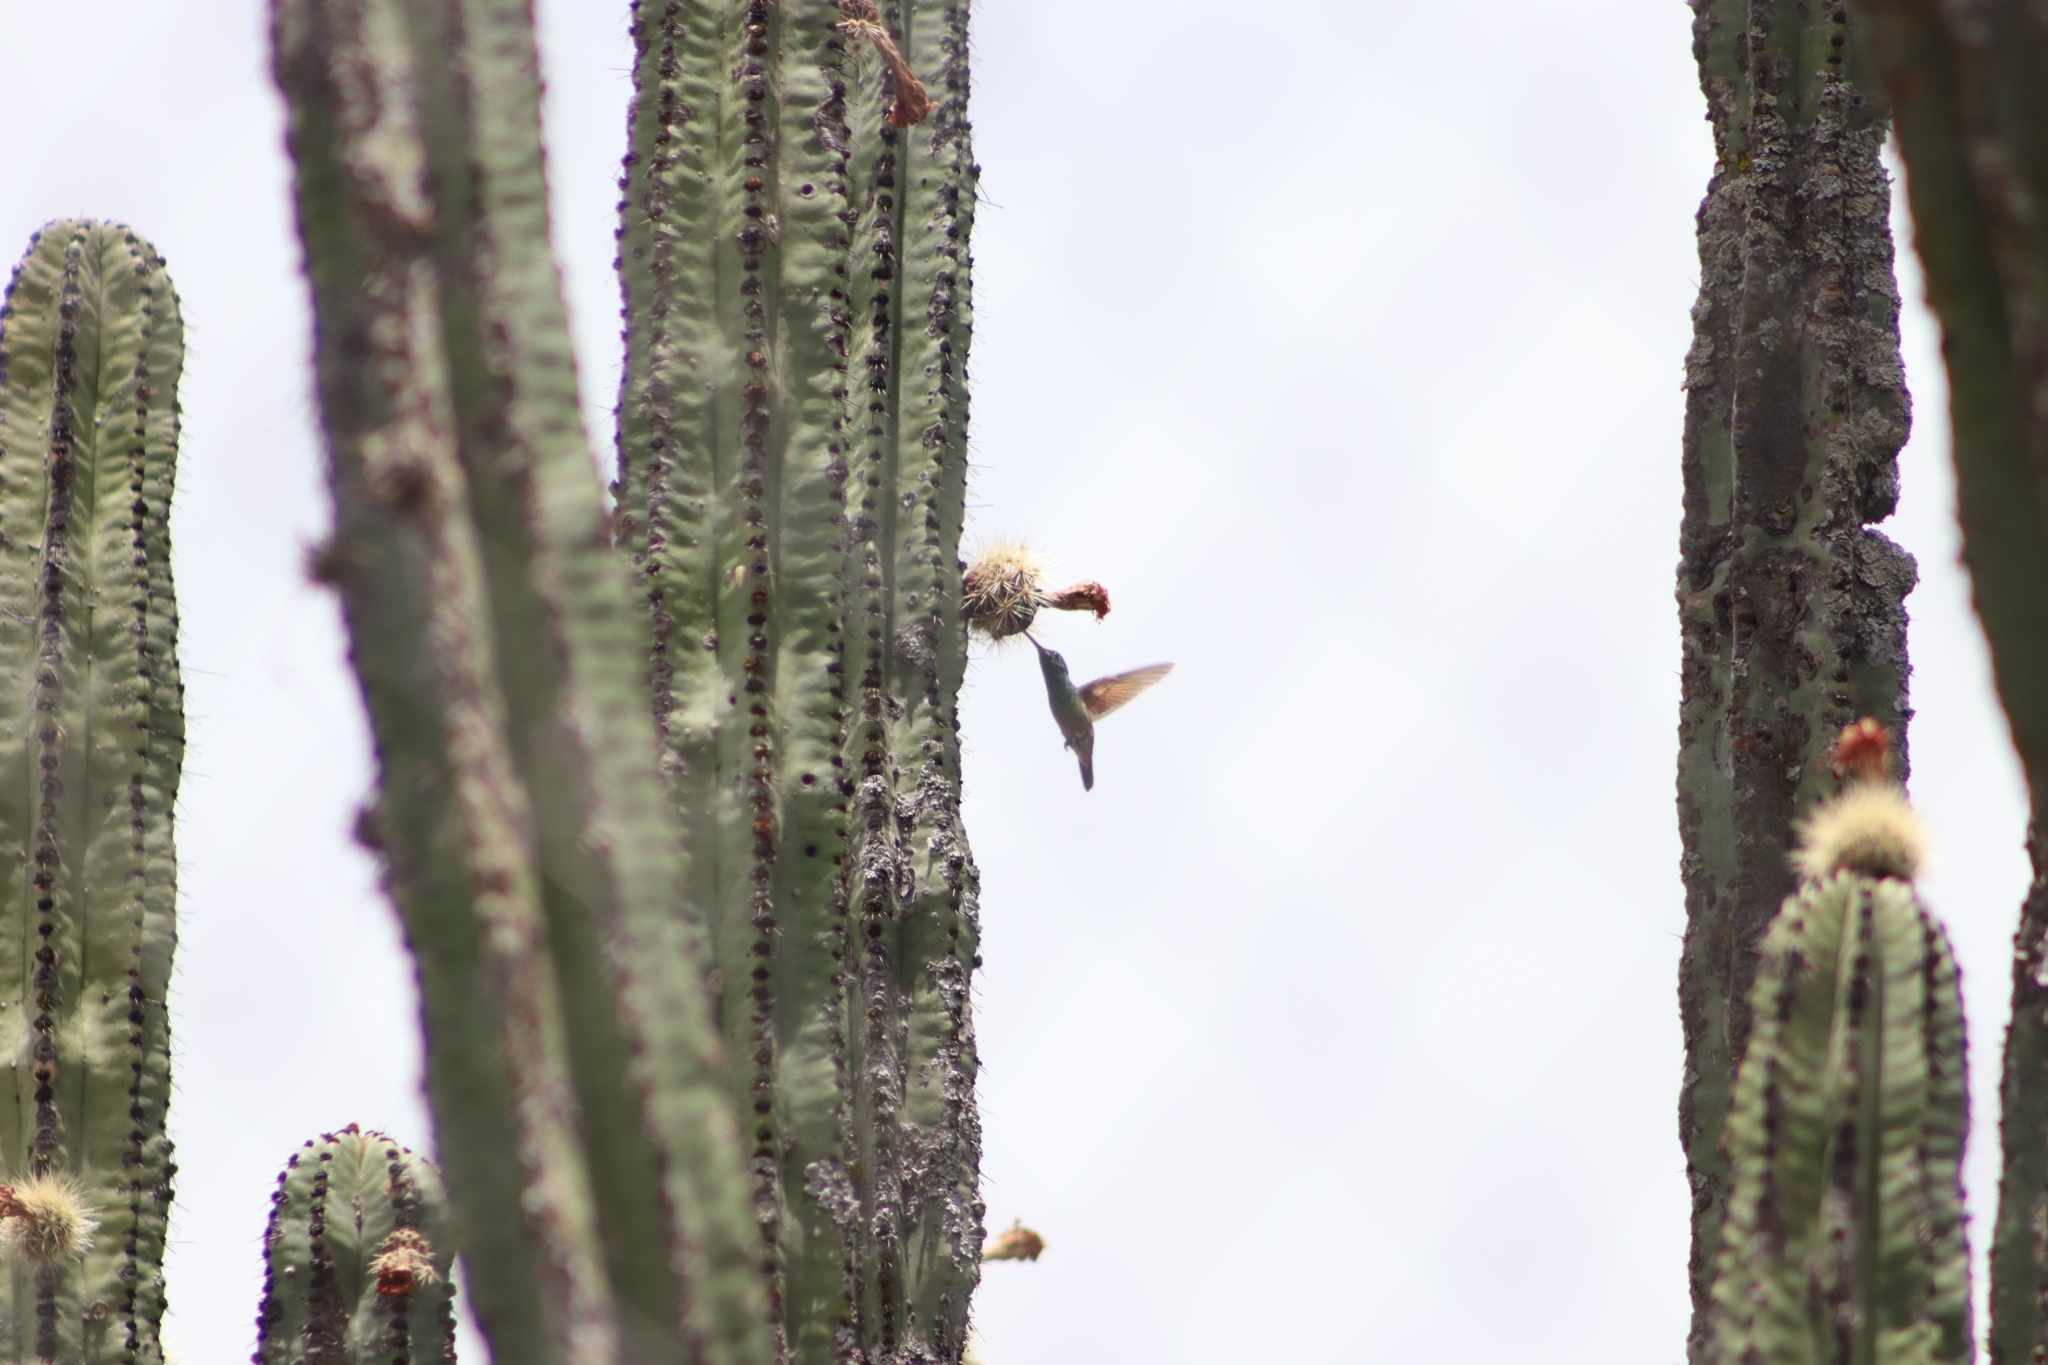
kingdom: Animalia
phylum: Chordata
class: Aves
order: Apodiformes
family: Trochilidae
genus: Cynanthus
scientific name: Cynanthus latirostris
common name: Broad-billed hummingbird
